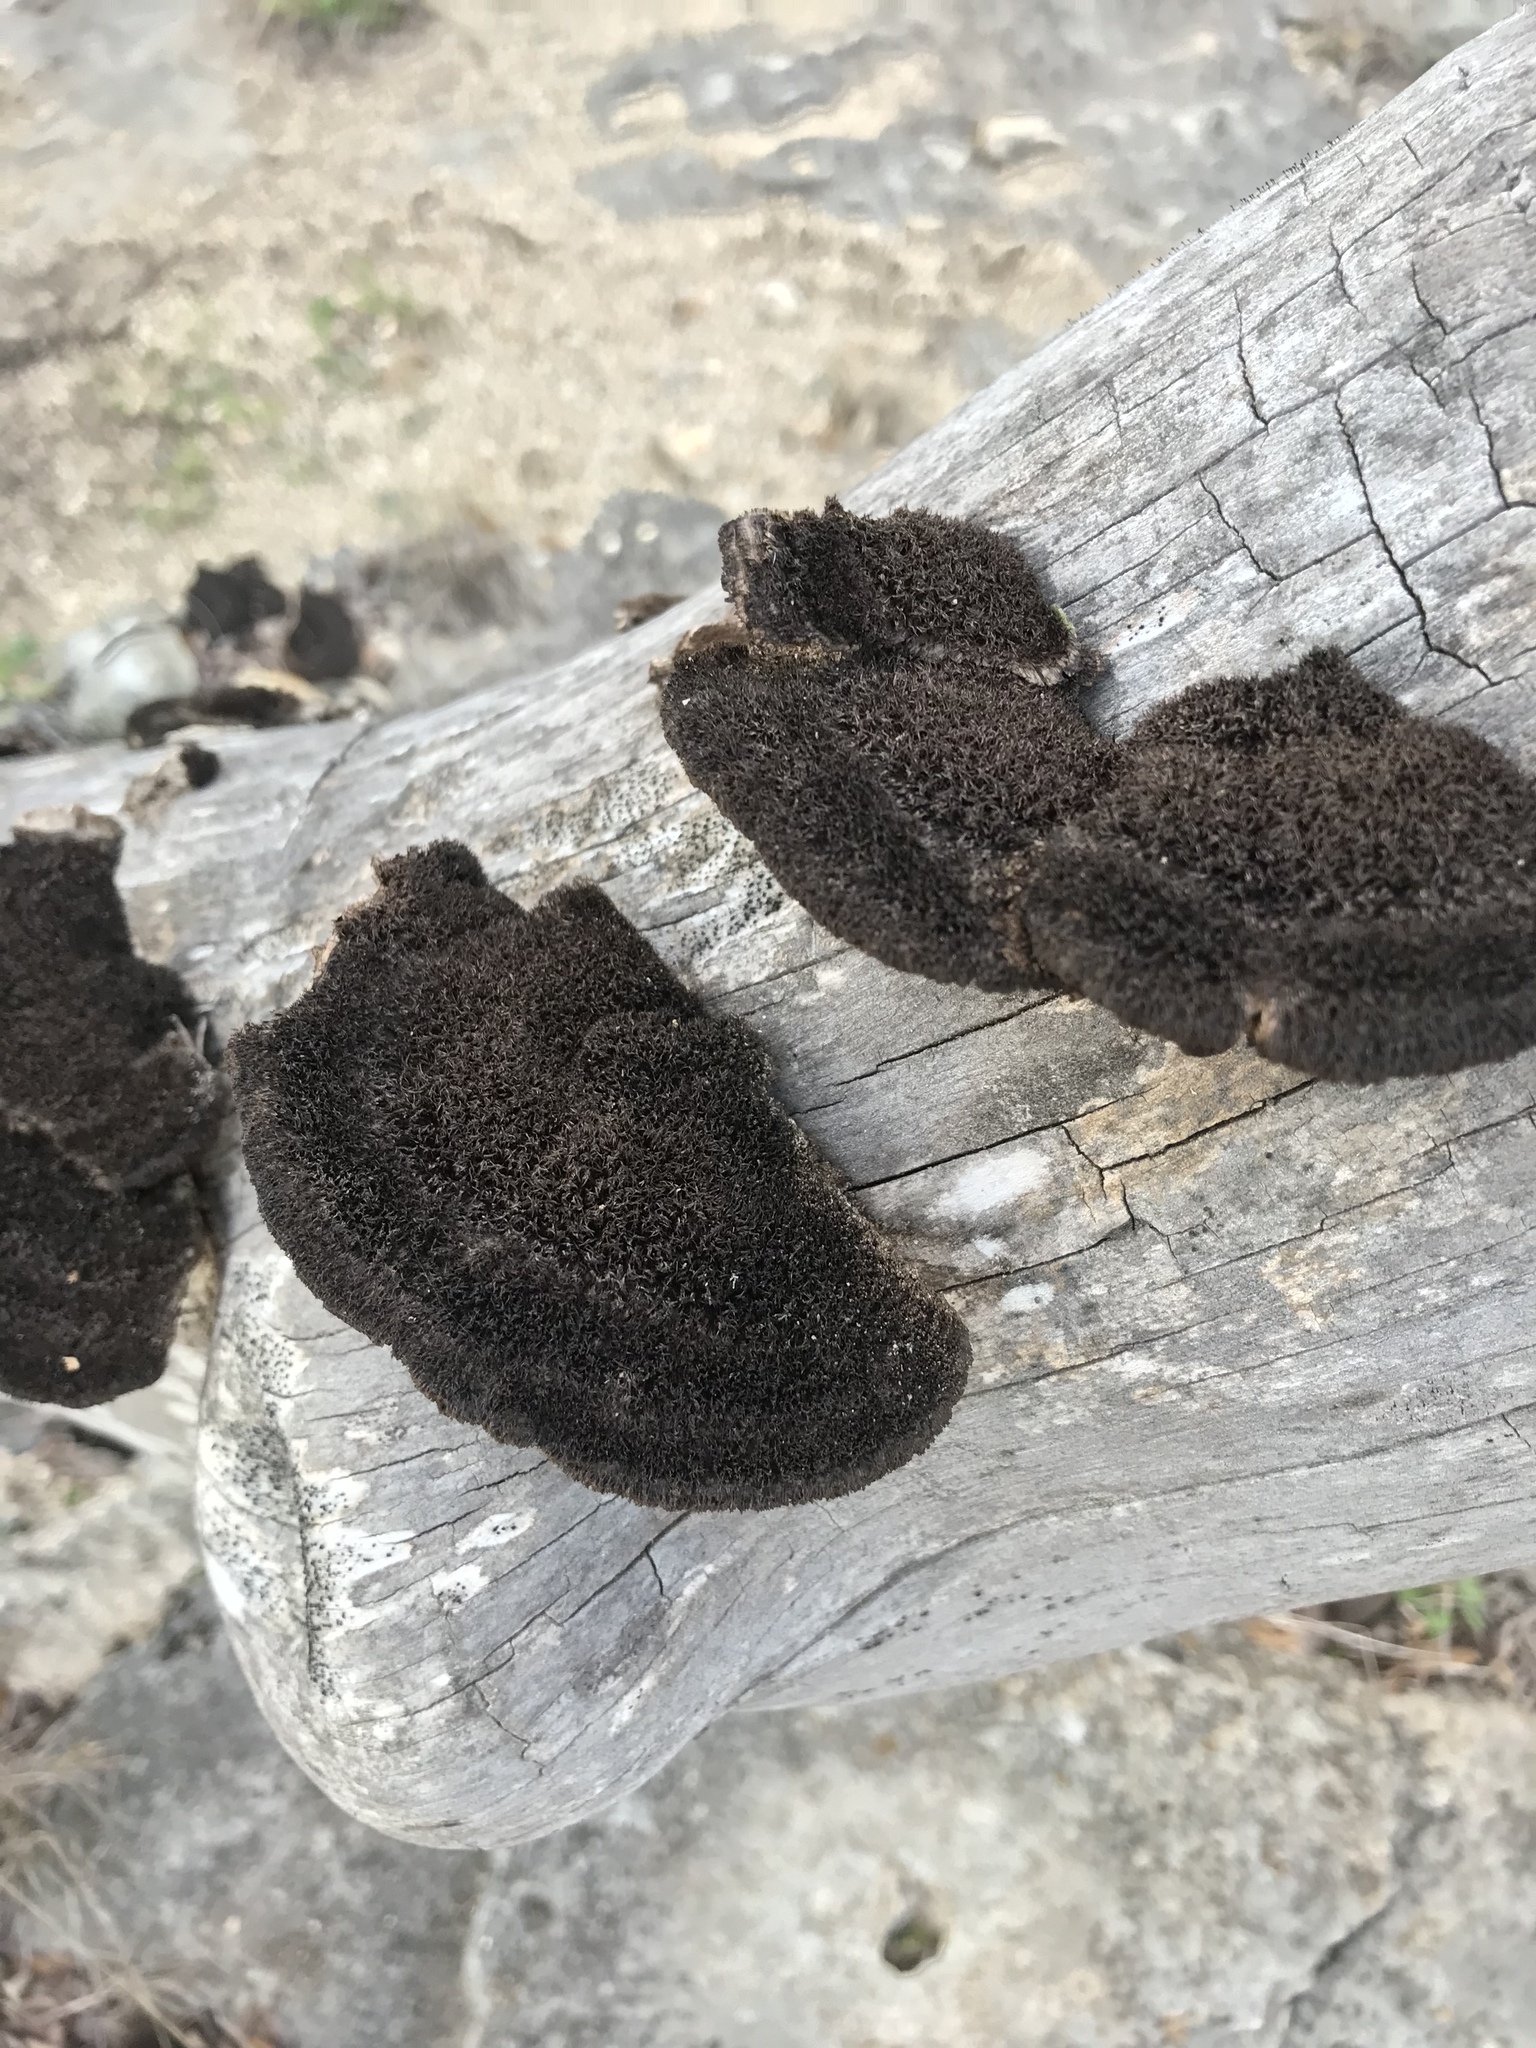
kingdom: Fungi
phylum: Basidiomycota
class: Agaricomycetes
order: Polyporales
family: Cerrenaceae
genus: Cerrena
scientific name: Cerrena hydnoides
